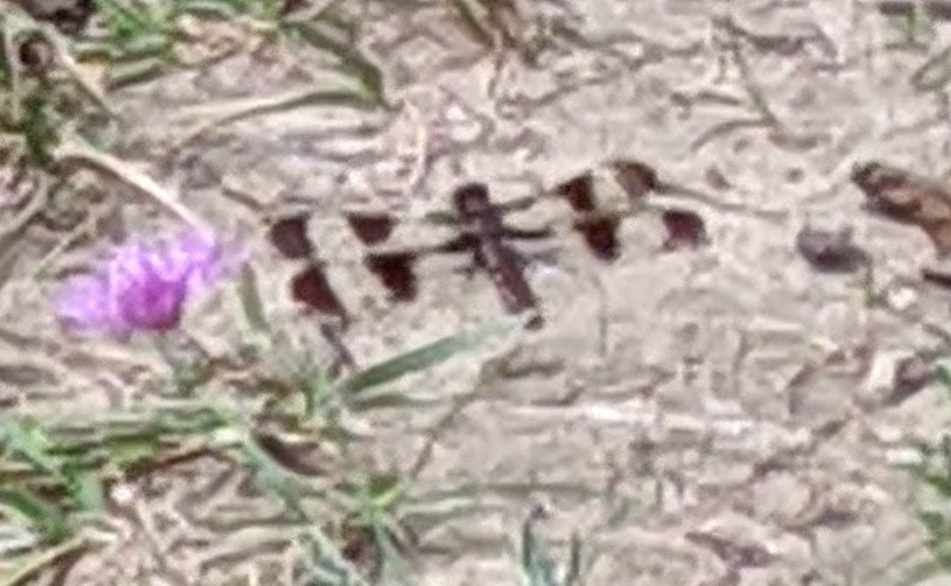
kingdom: Animalia
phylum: Arthropoda
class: Insecta
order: Odonata
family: Libellulidae
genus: Plathemis
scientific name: Plathemis lydia
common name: Common whitetail
